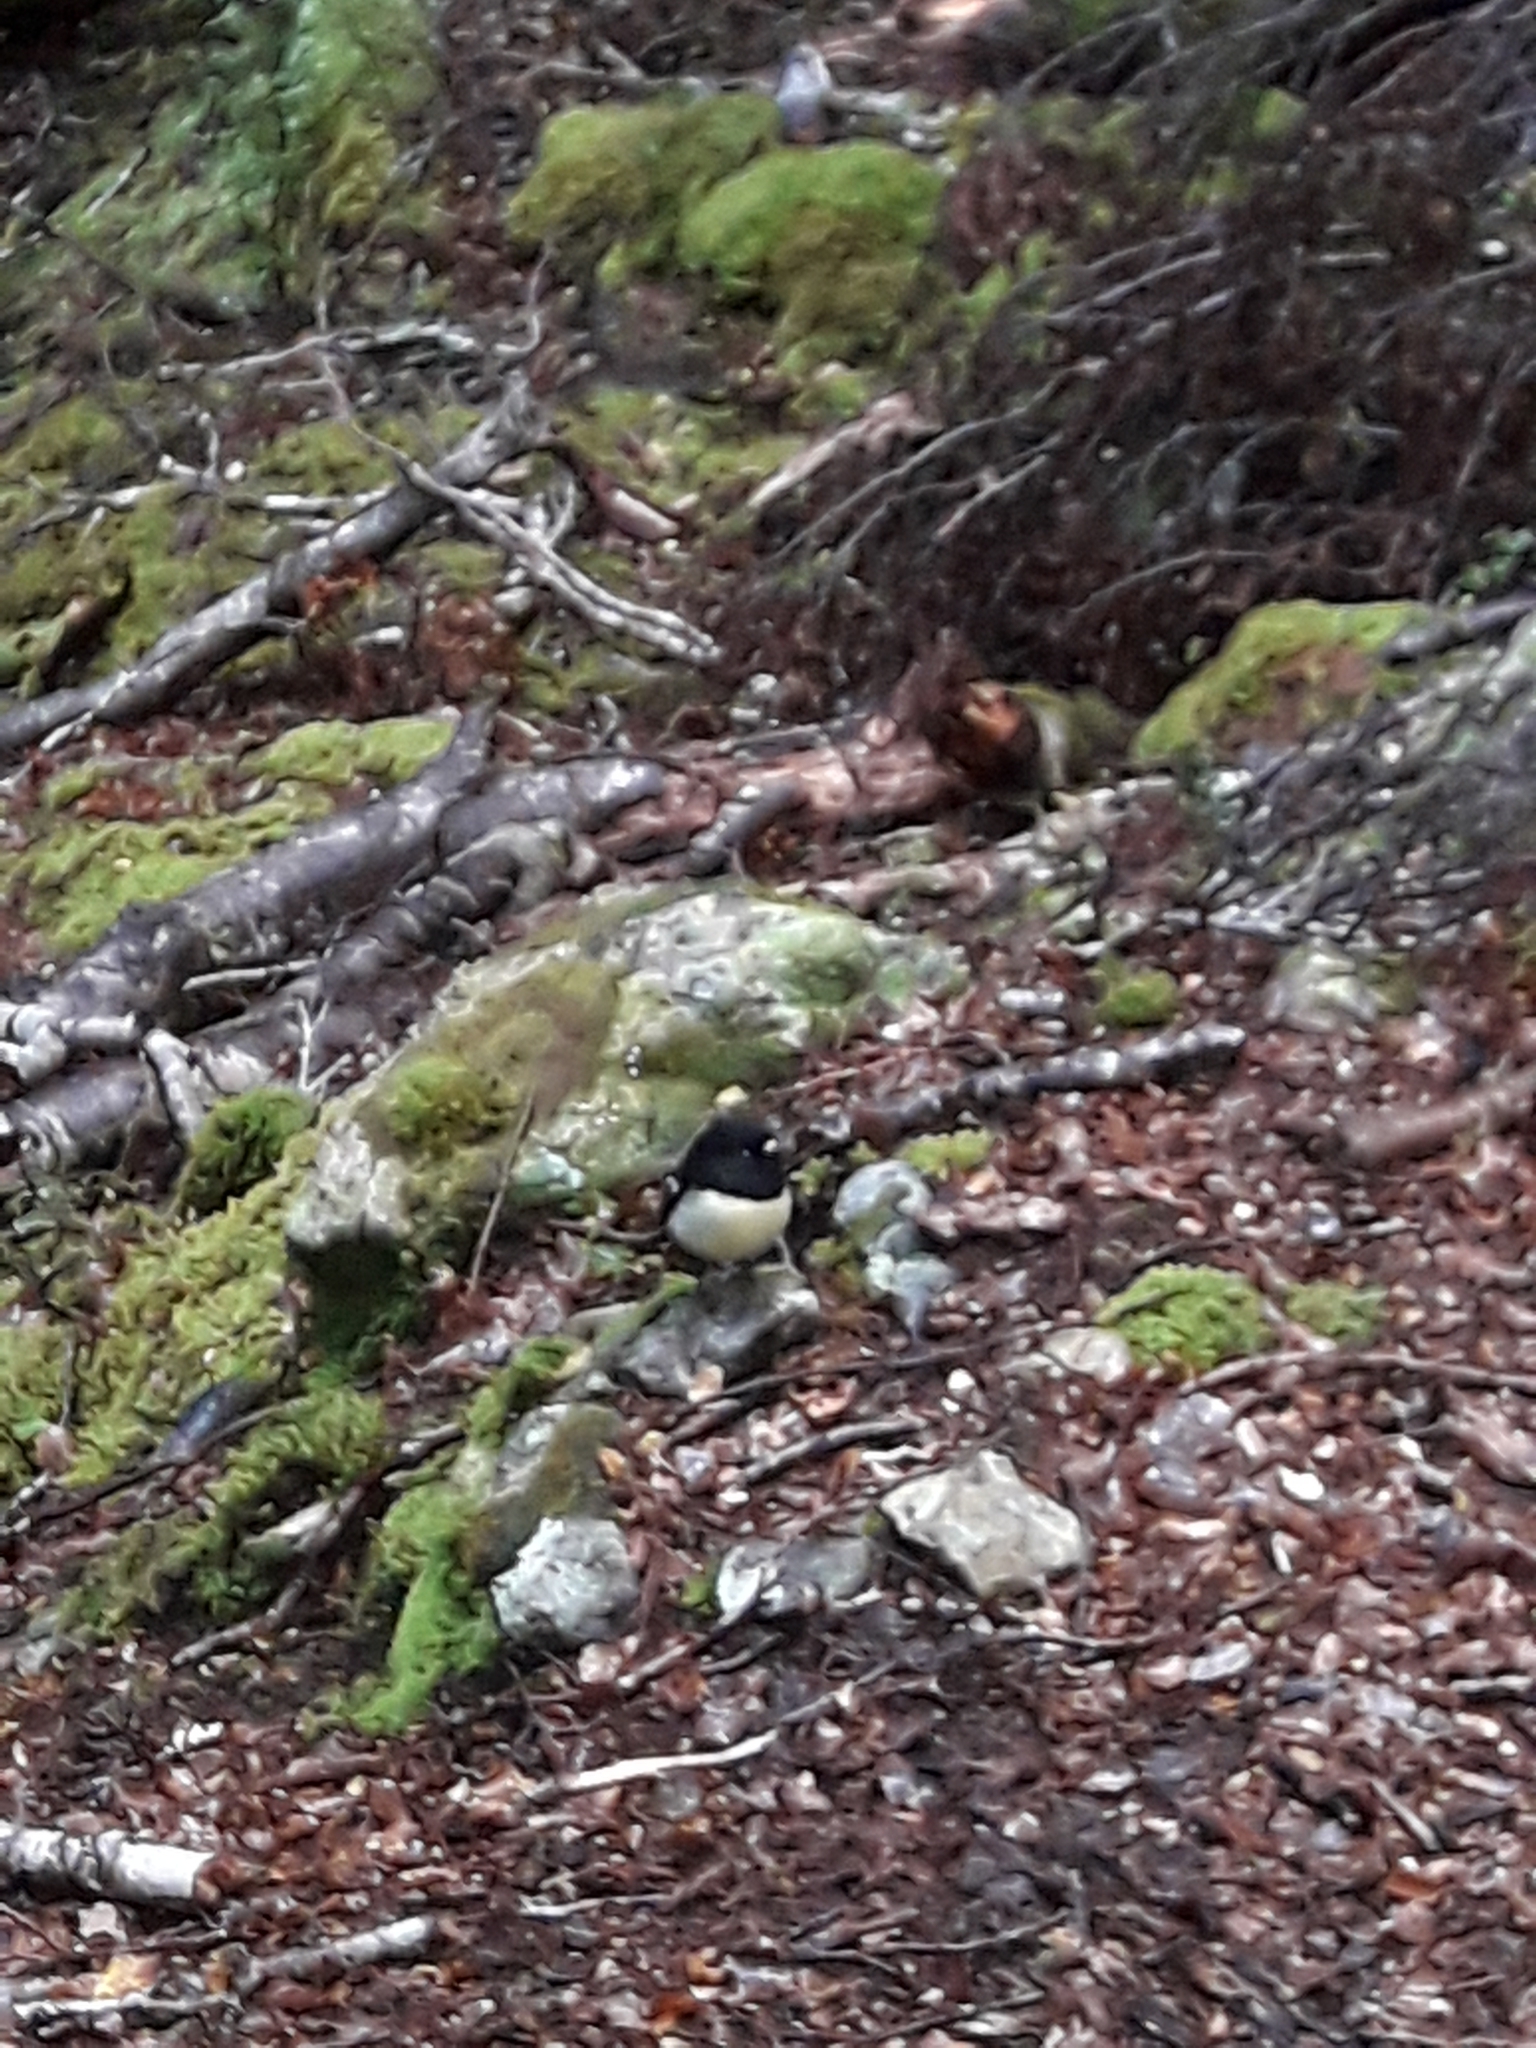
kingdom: Animalia
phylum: Chordata
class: Aves
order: Passeriformes
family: Petroicidae
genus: Petroica
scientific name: Petroica macrocephala
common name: Tomtit
